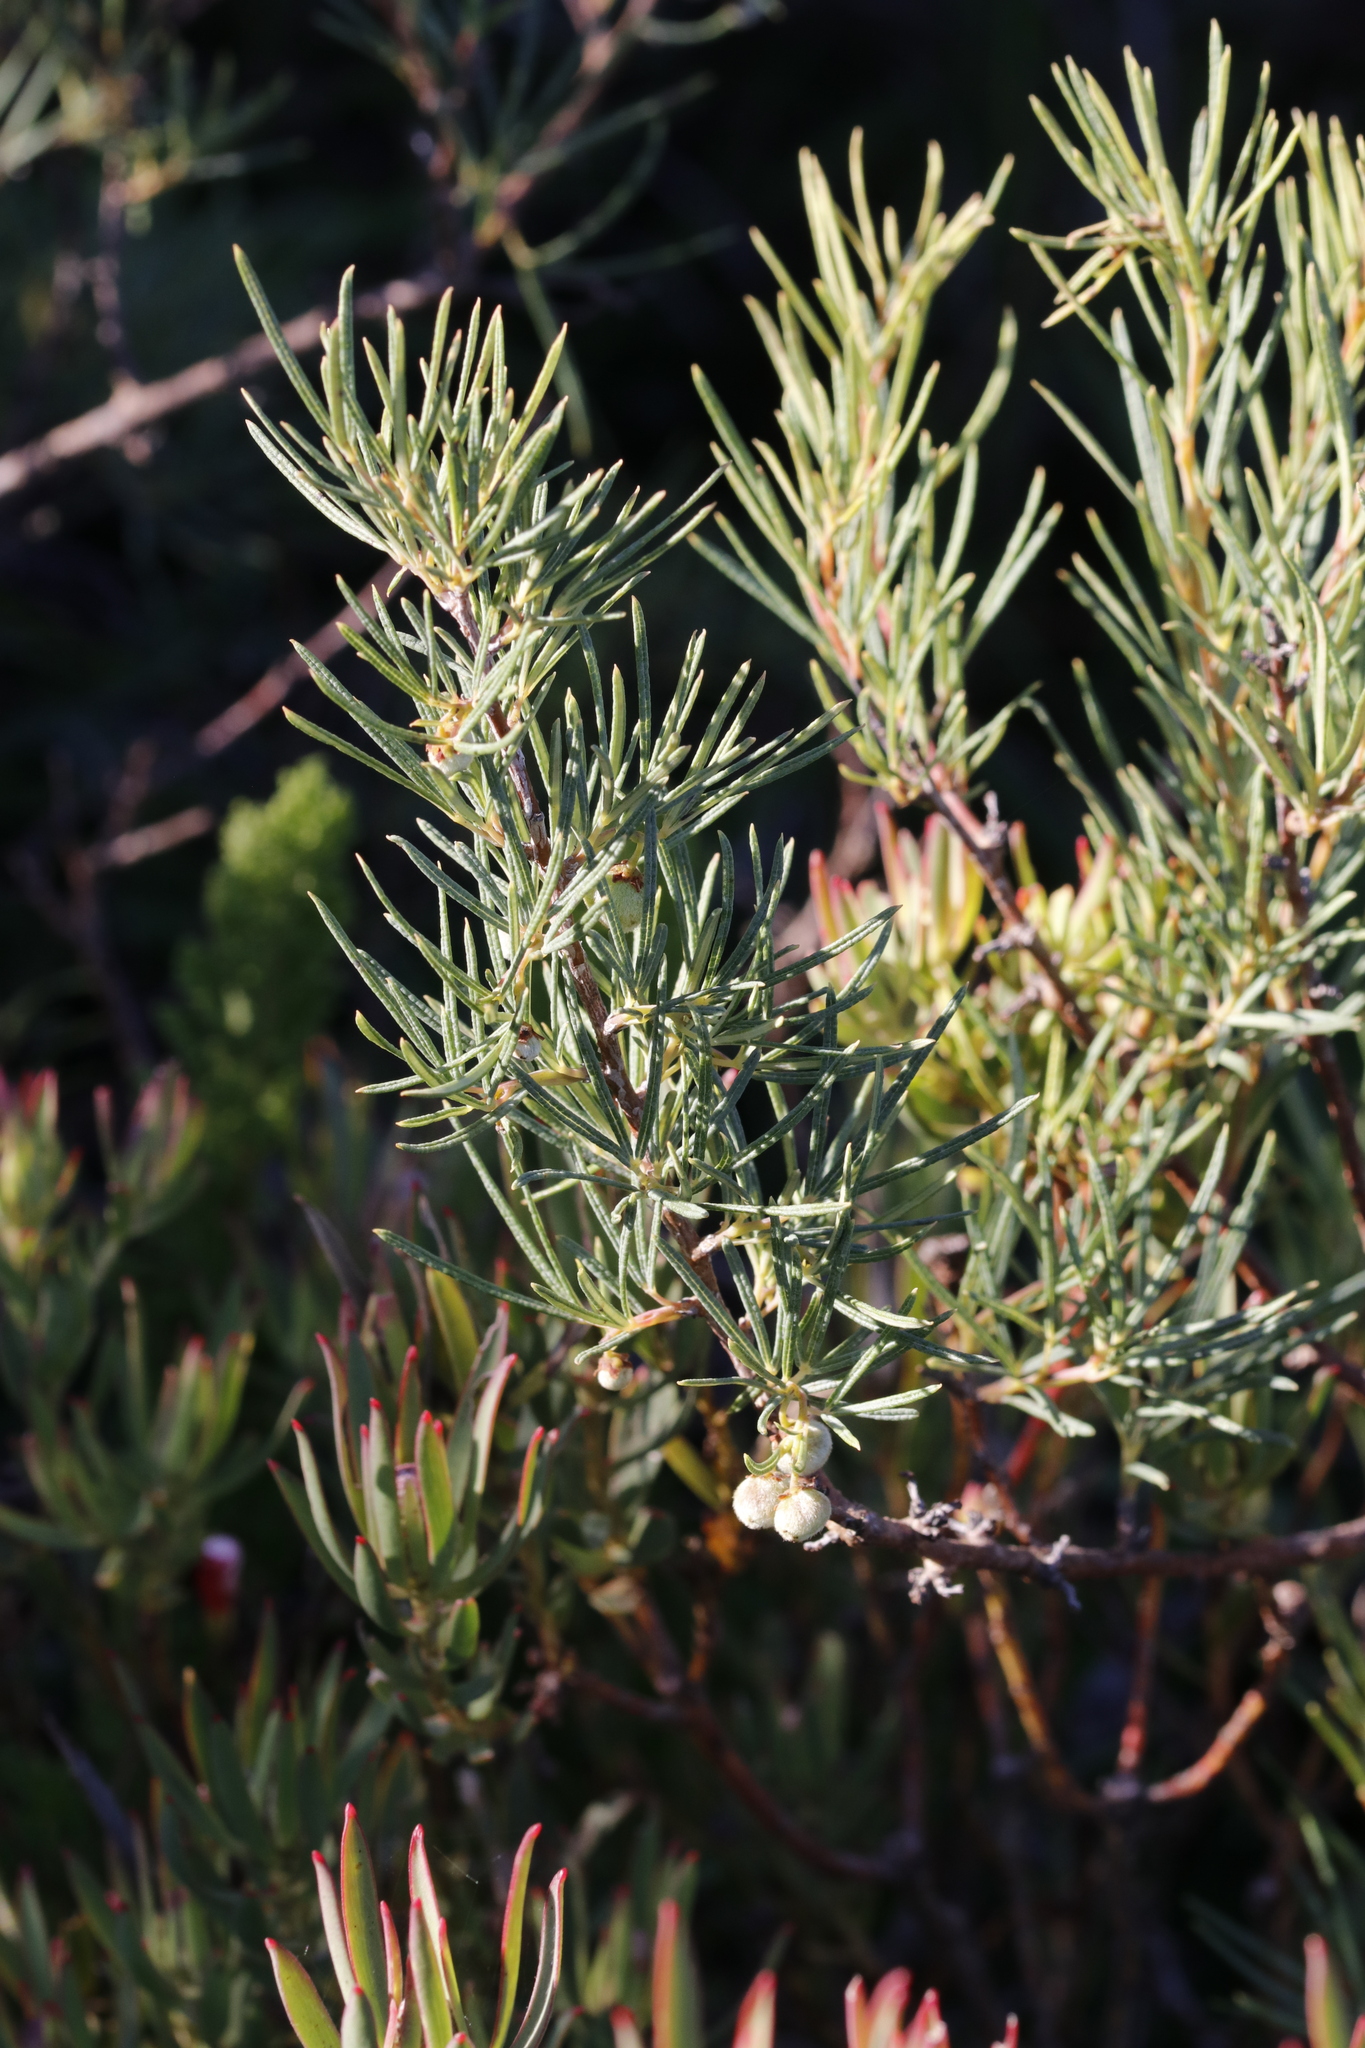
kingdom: Plantae
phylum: Tracheophyta
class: Magnoliopsida
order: Sapindales
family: Anacardiaceae
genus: Searsia
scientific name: Searsia rosmarinifolia
